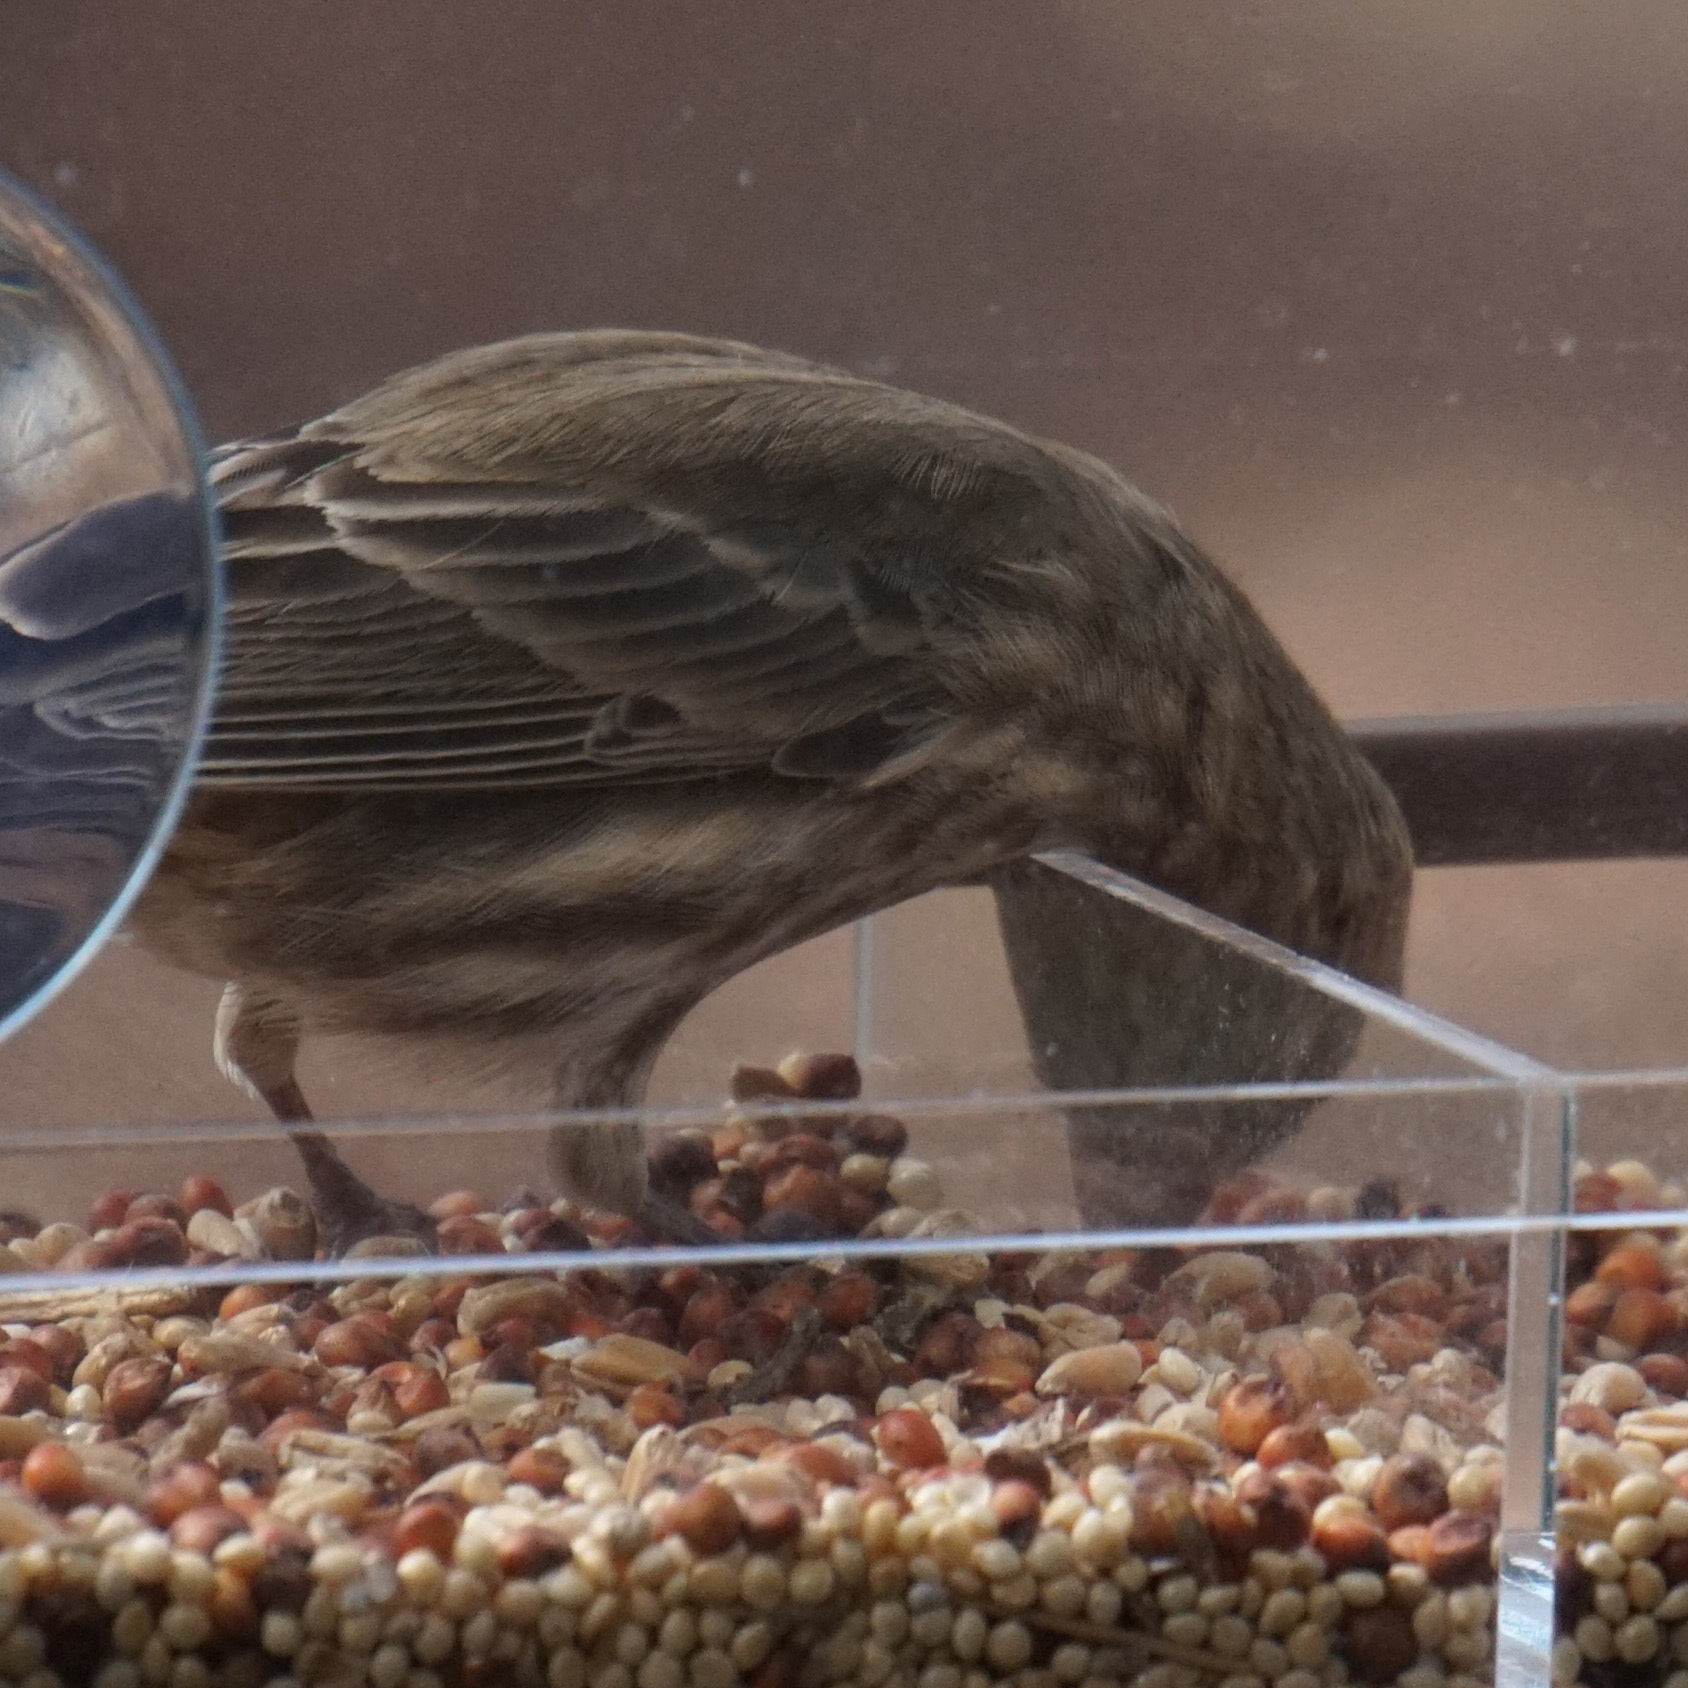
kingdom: Animalia
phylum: Chordata
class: Aves
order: Passeriformes
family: Fringillidae
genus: Haemorhous
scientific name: Haemorhous mexicanus
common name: House finch
